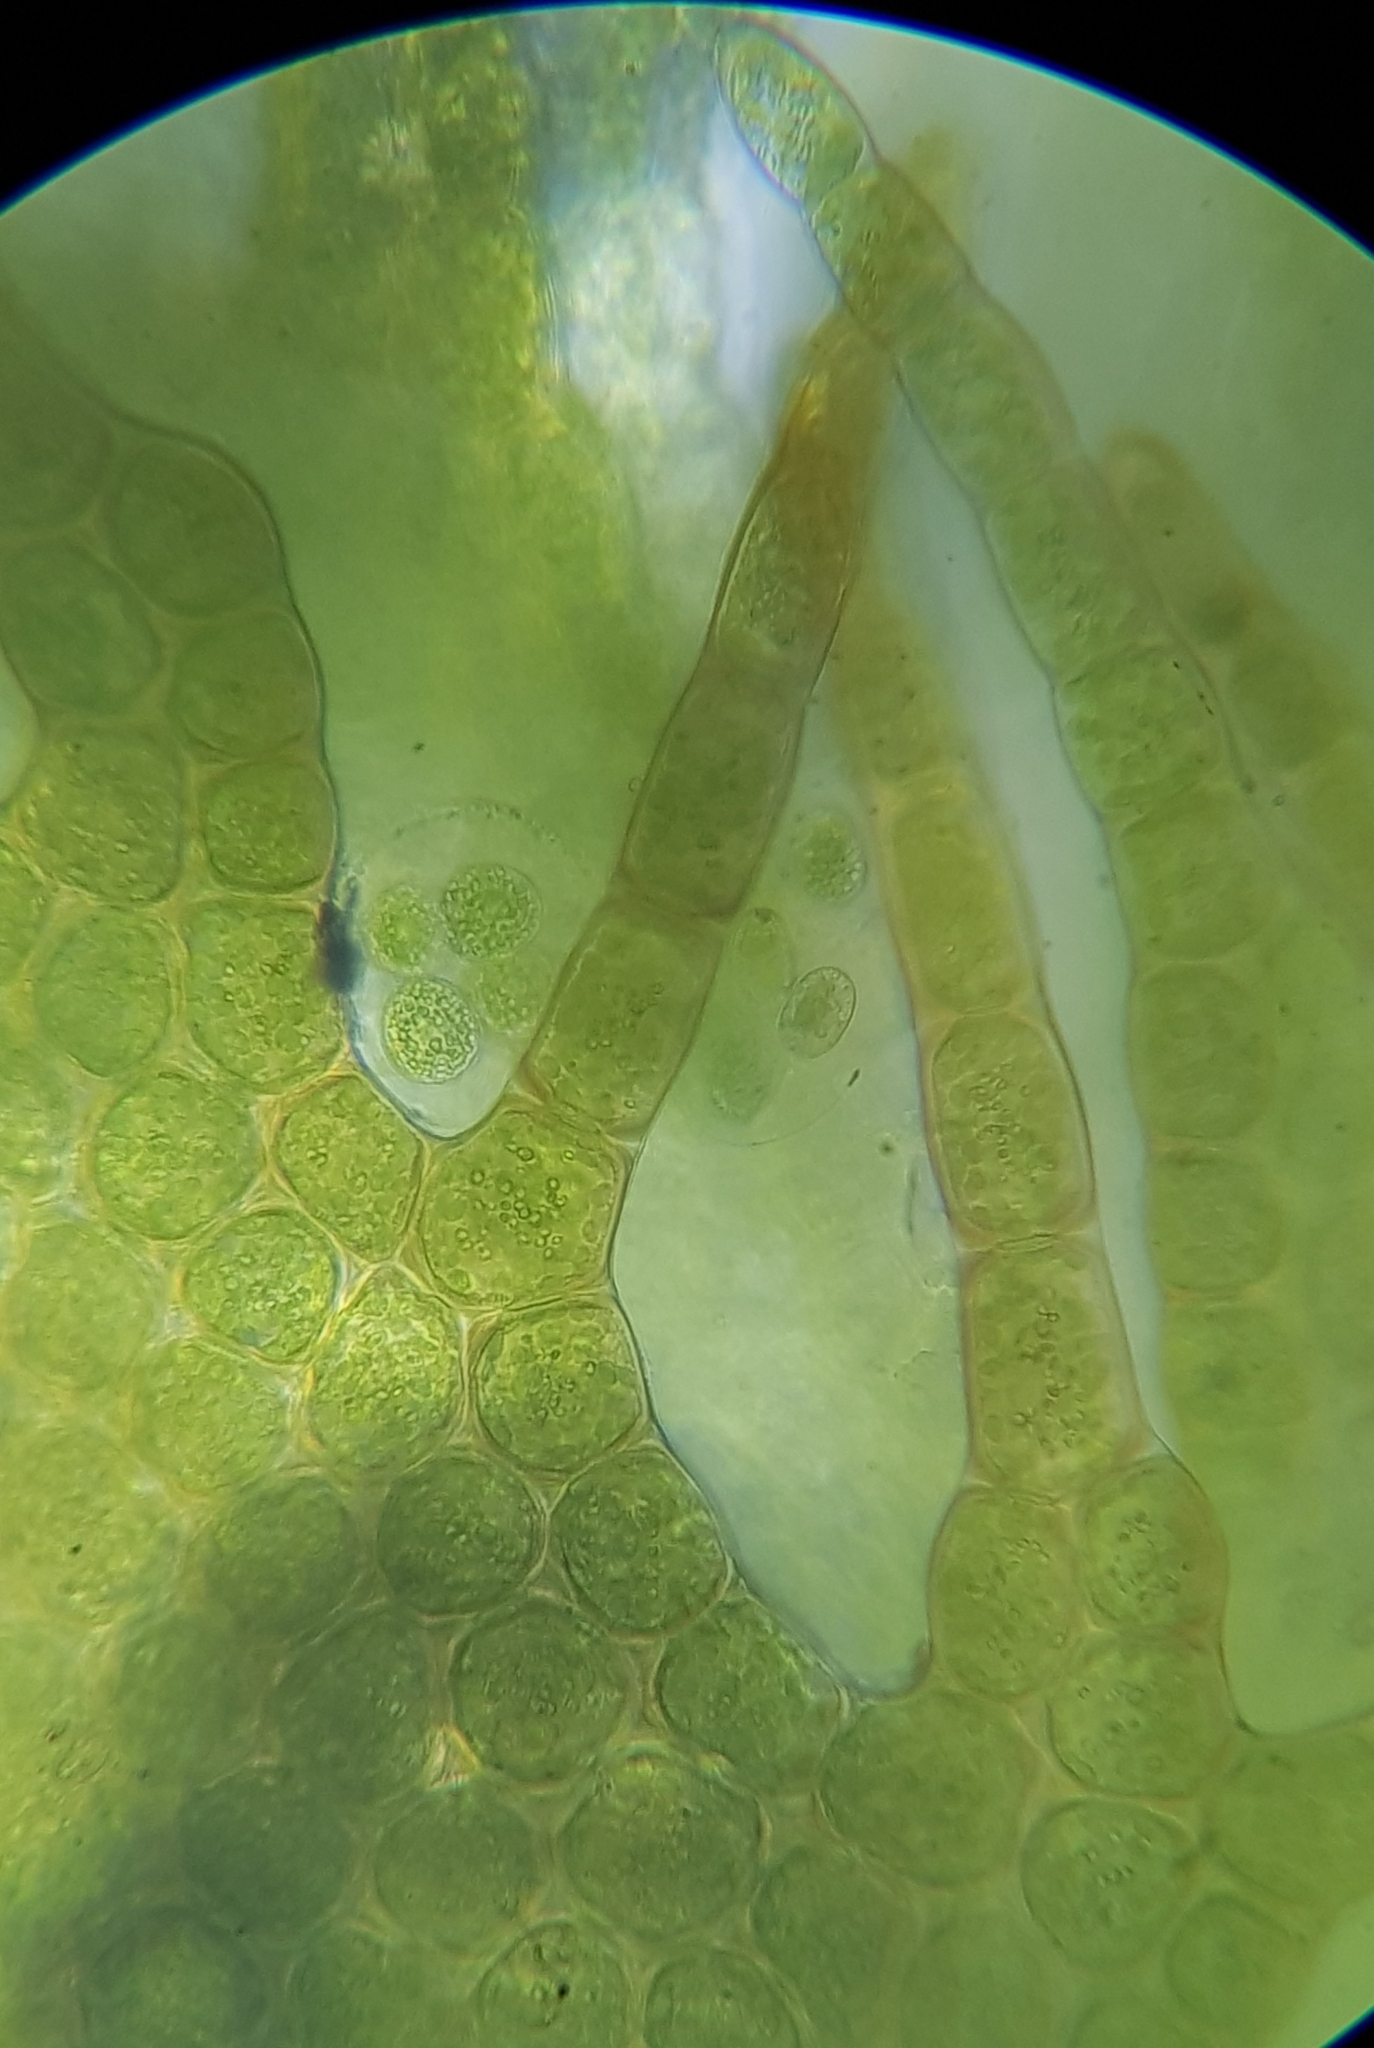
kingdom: Plantae
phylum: Marchantiophyta
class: Jungermanniopsida
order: Ptilidiales
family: Ptilidiaceae
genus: Ptilidium
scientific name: Ptilidium ciliare
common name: Ciliate fringewort
